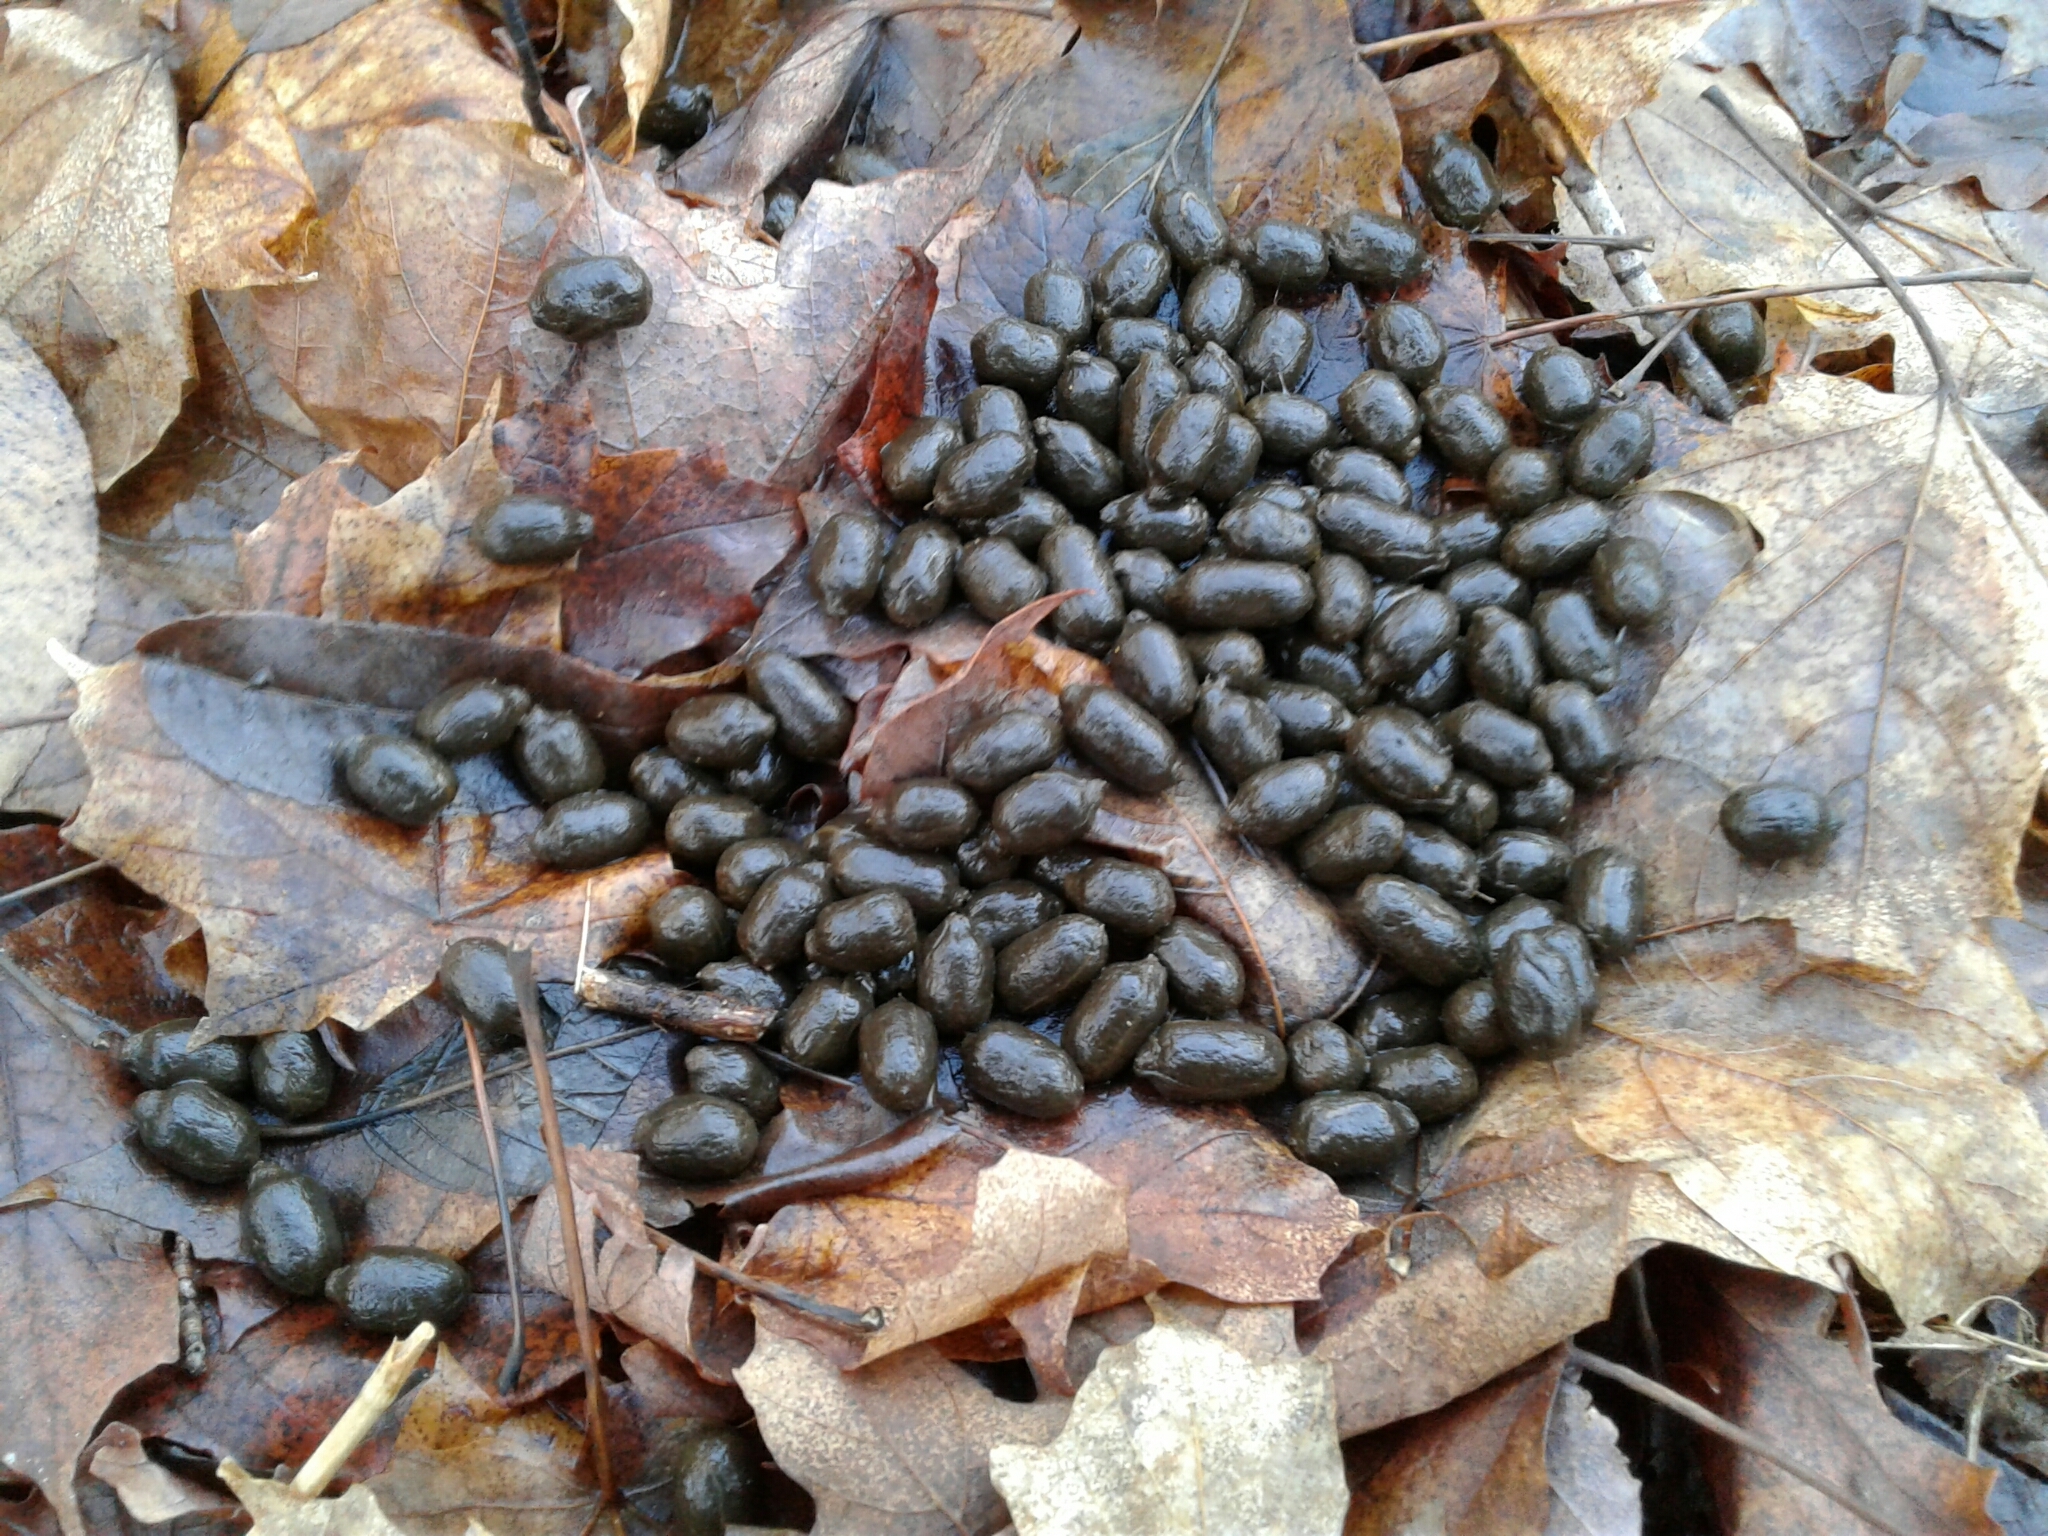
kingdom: Animalia
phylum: Chordata
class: Mammalia
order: Artiodactyla
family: Cervidae
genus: Odocoileus
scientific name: Odocoileus virginianus
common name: White-tailed deer
